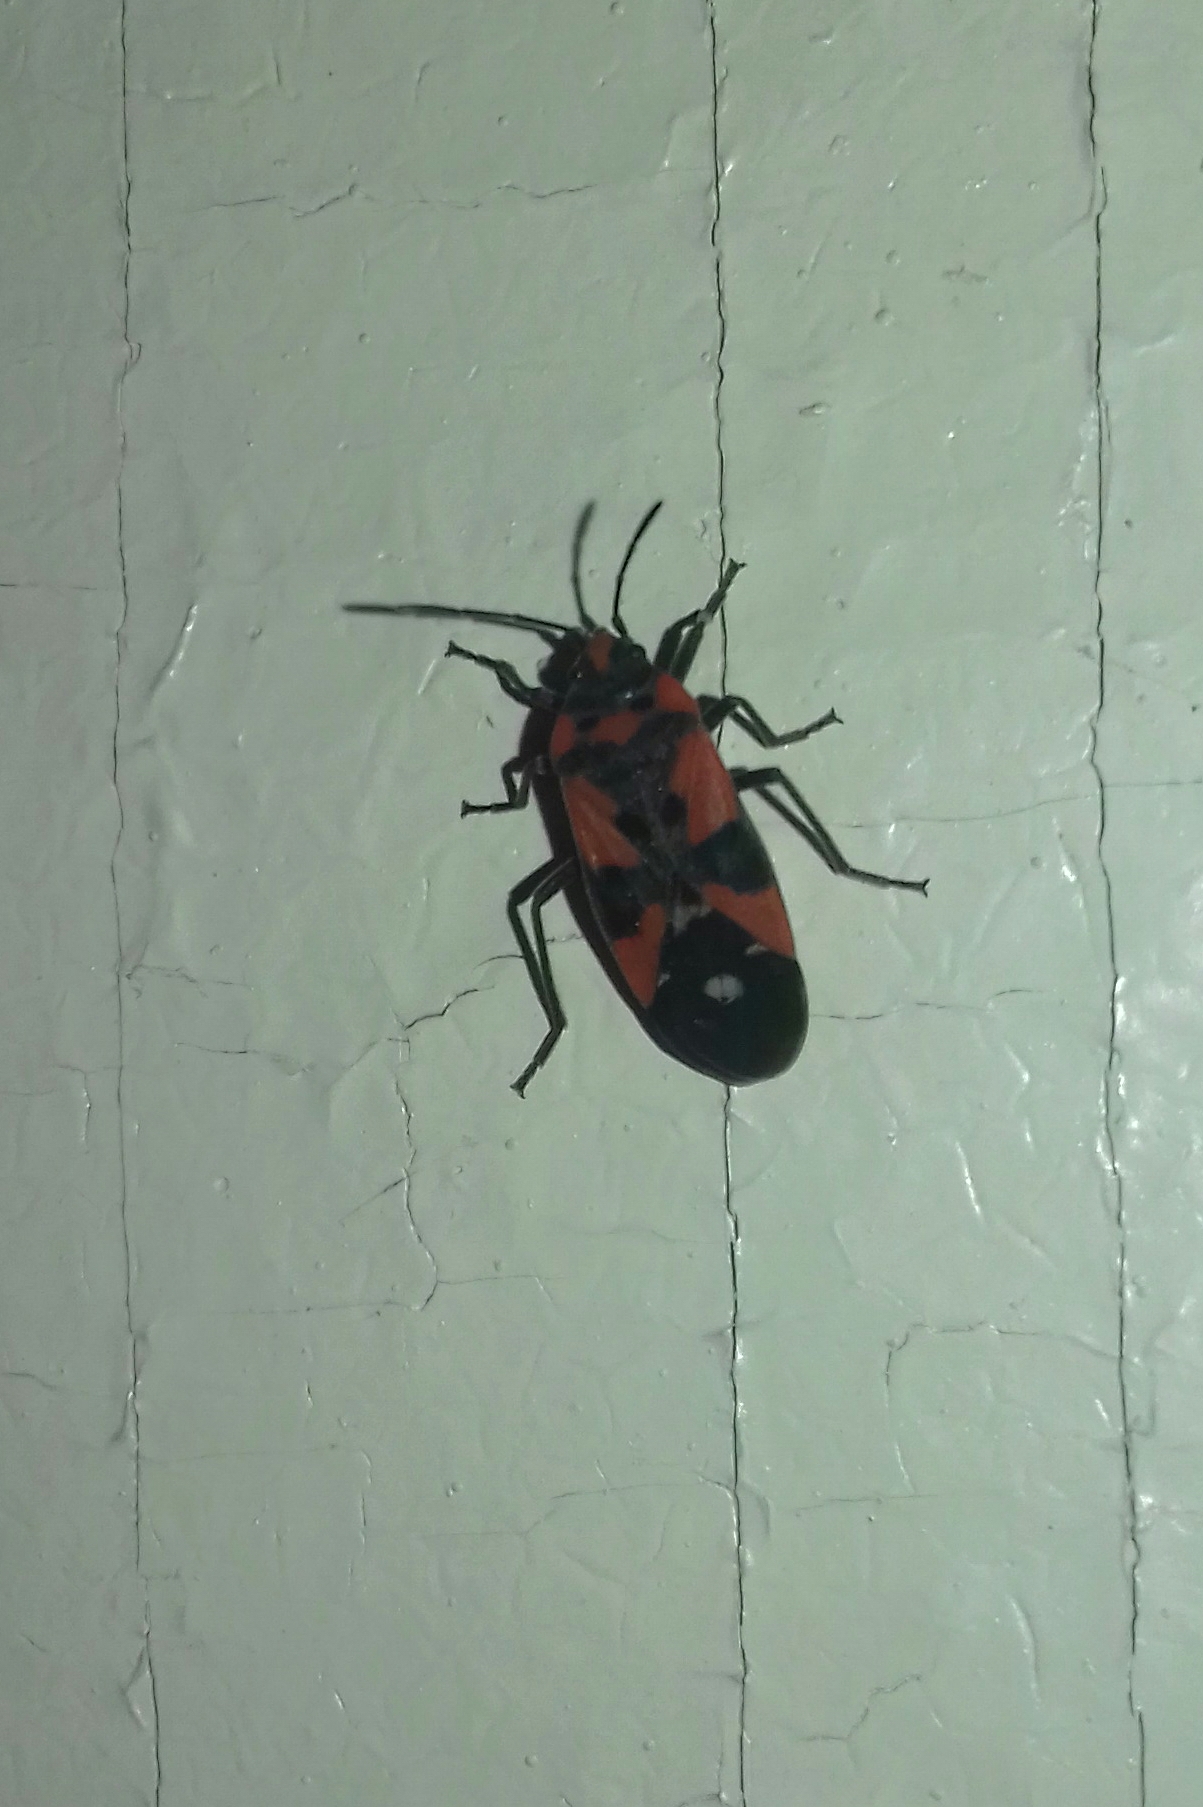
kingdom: Animalia
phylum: Arthropoda
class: Insecta
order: Hemiptera
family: Lygaeidae
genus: Lygaeus
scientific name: Lygaeus equestris
